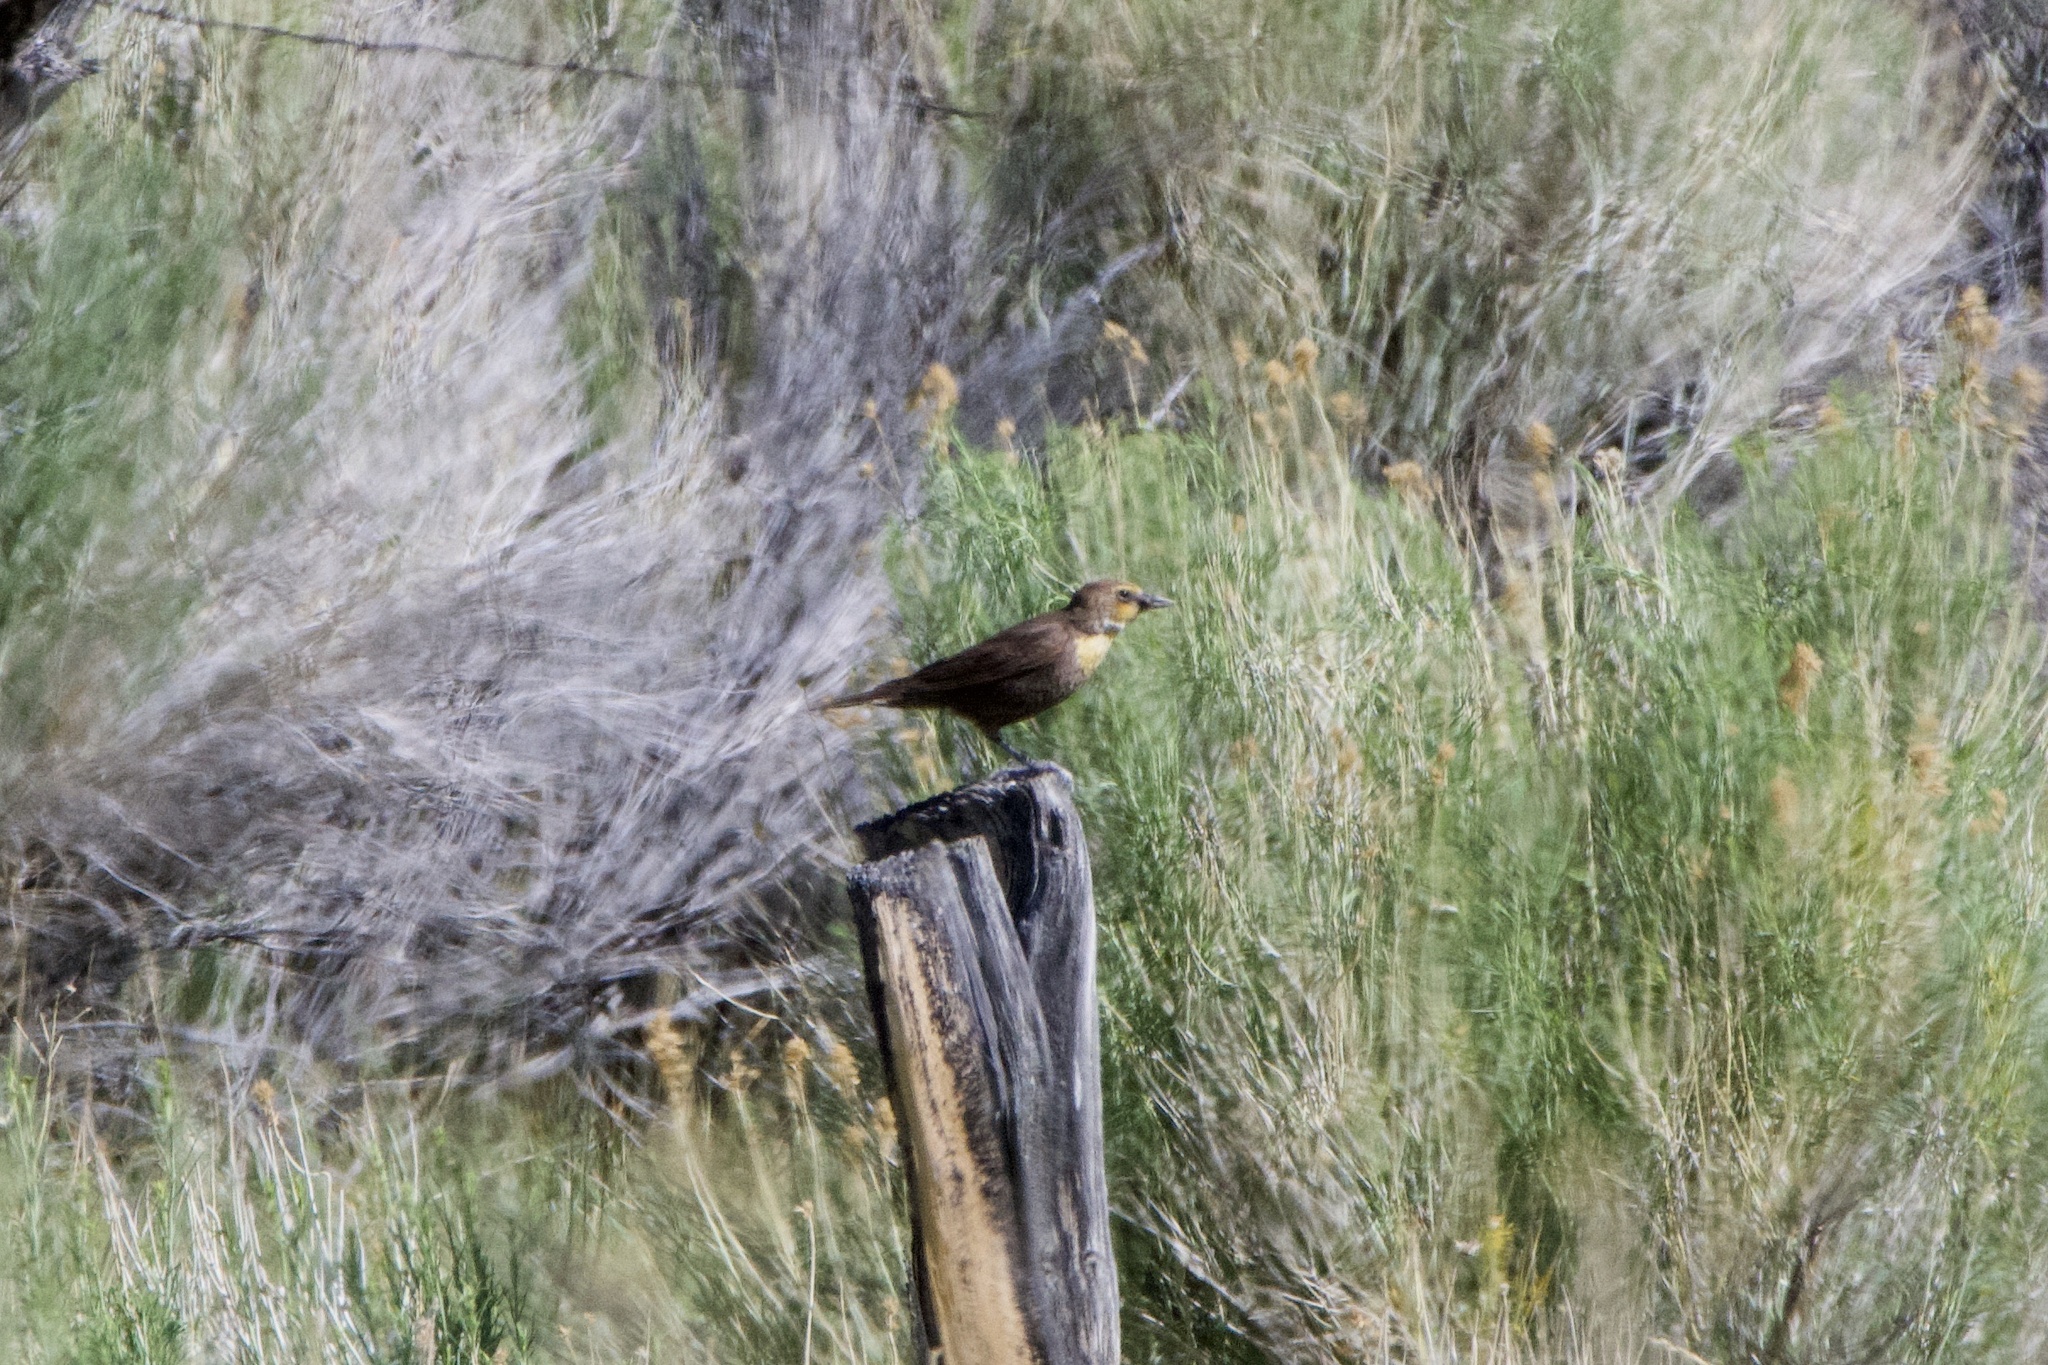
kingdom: Animalia
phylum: Chordata
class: Aves
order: Passeriformes
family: Icteridae
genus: Xanthocephalus
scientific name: Xanthocephalus xanthocephalus
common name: Yellow-headed blackbird
